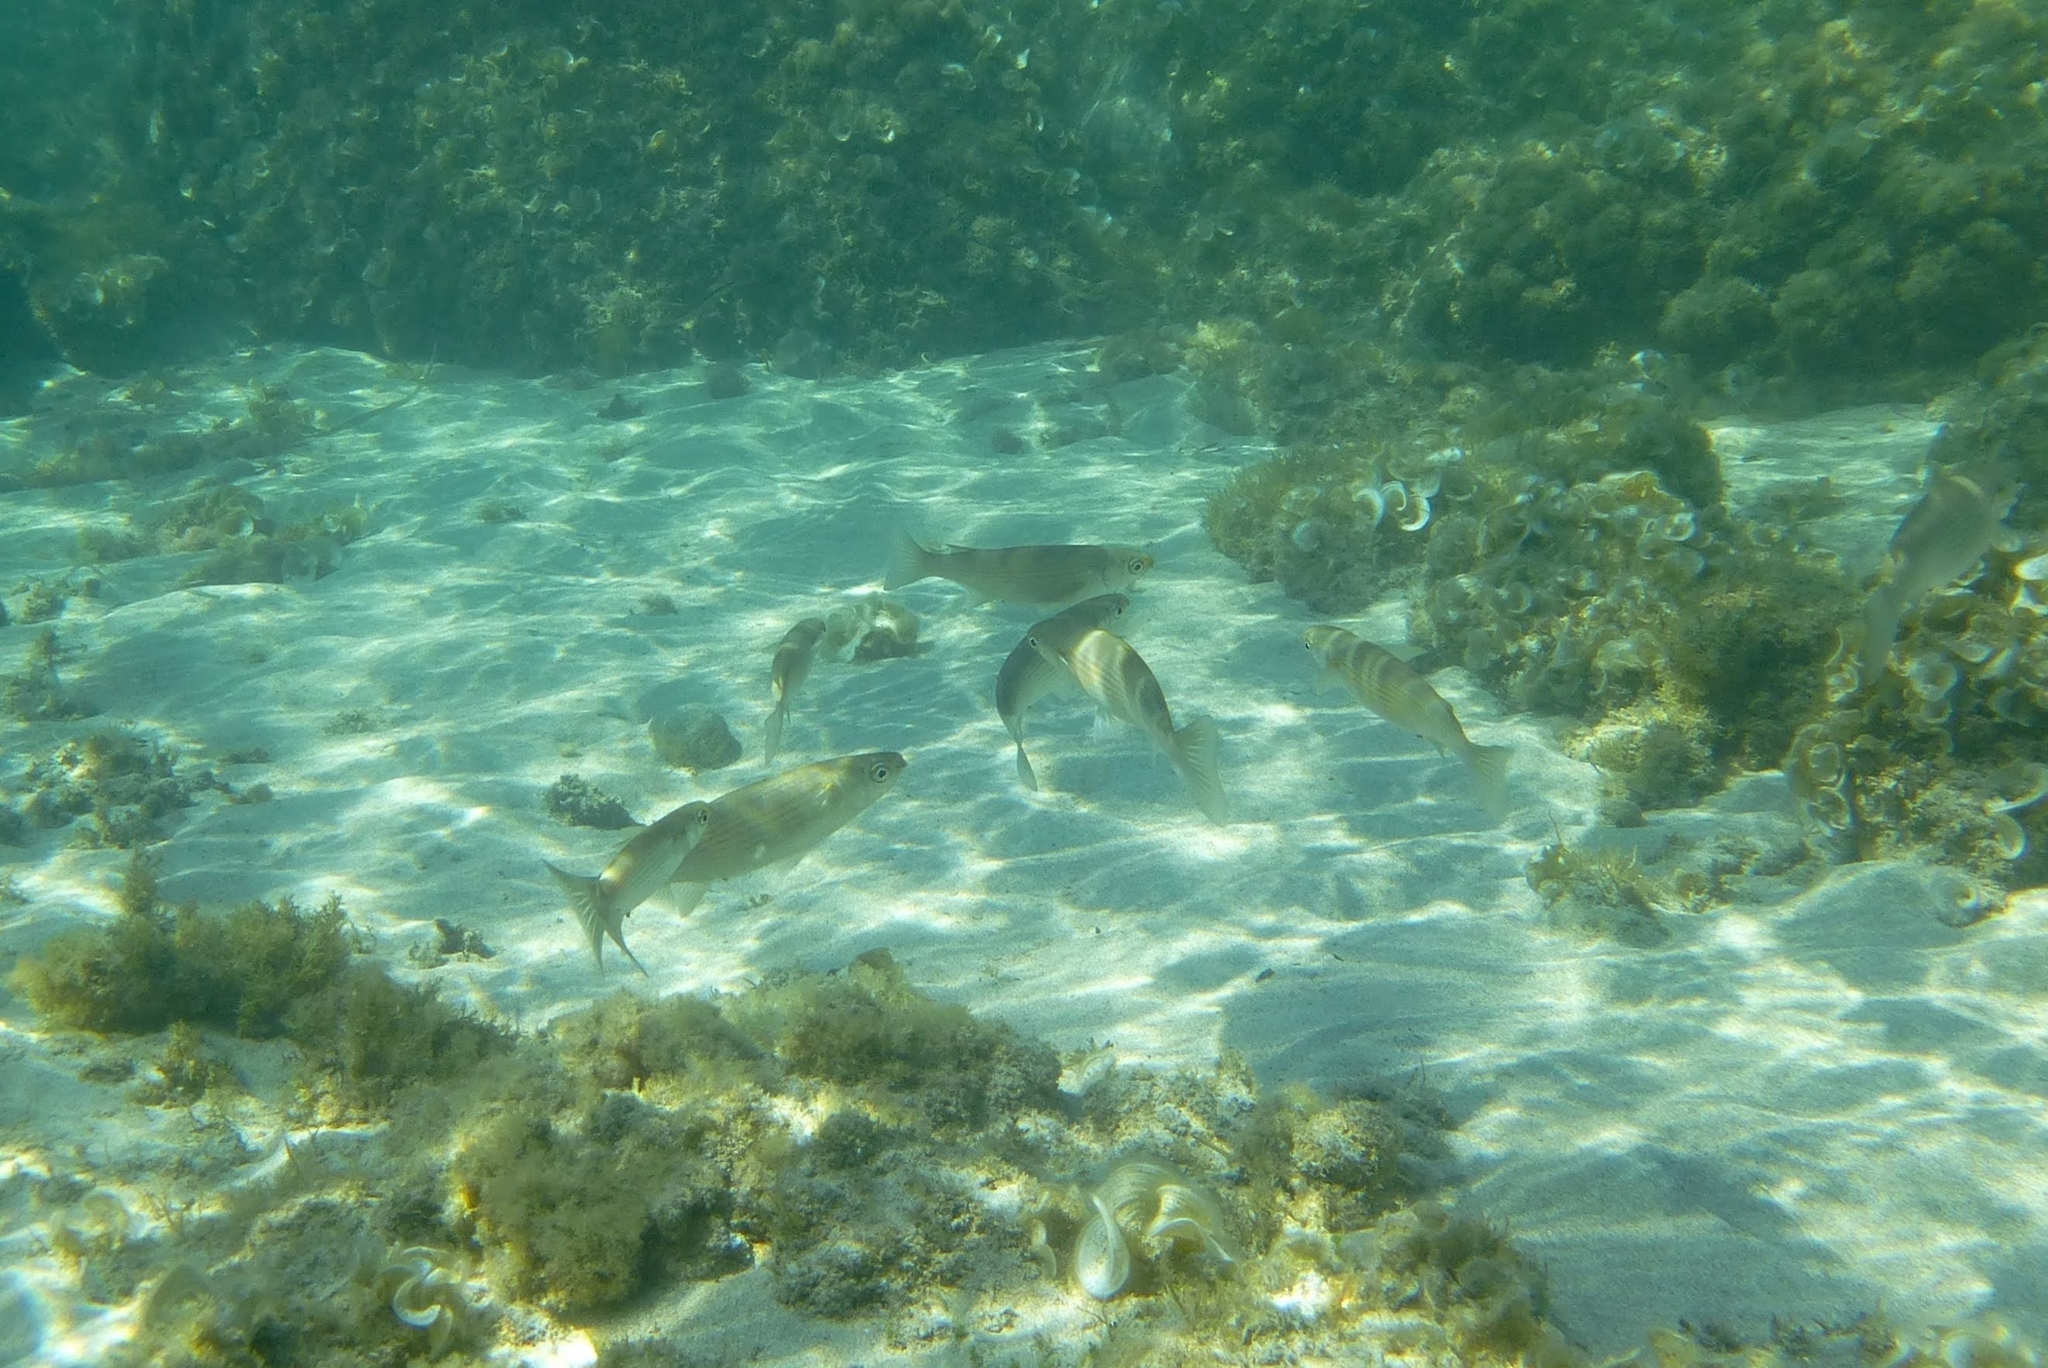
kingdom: Animalia
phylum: Chordata
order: Mugiliformes
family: Mugilidae
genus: Oedalechilus
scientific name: Oedalechilus labeo
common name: Boxlip mullet
